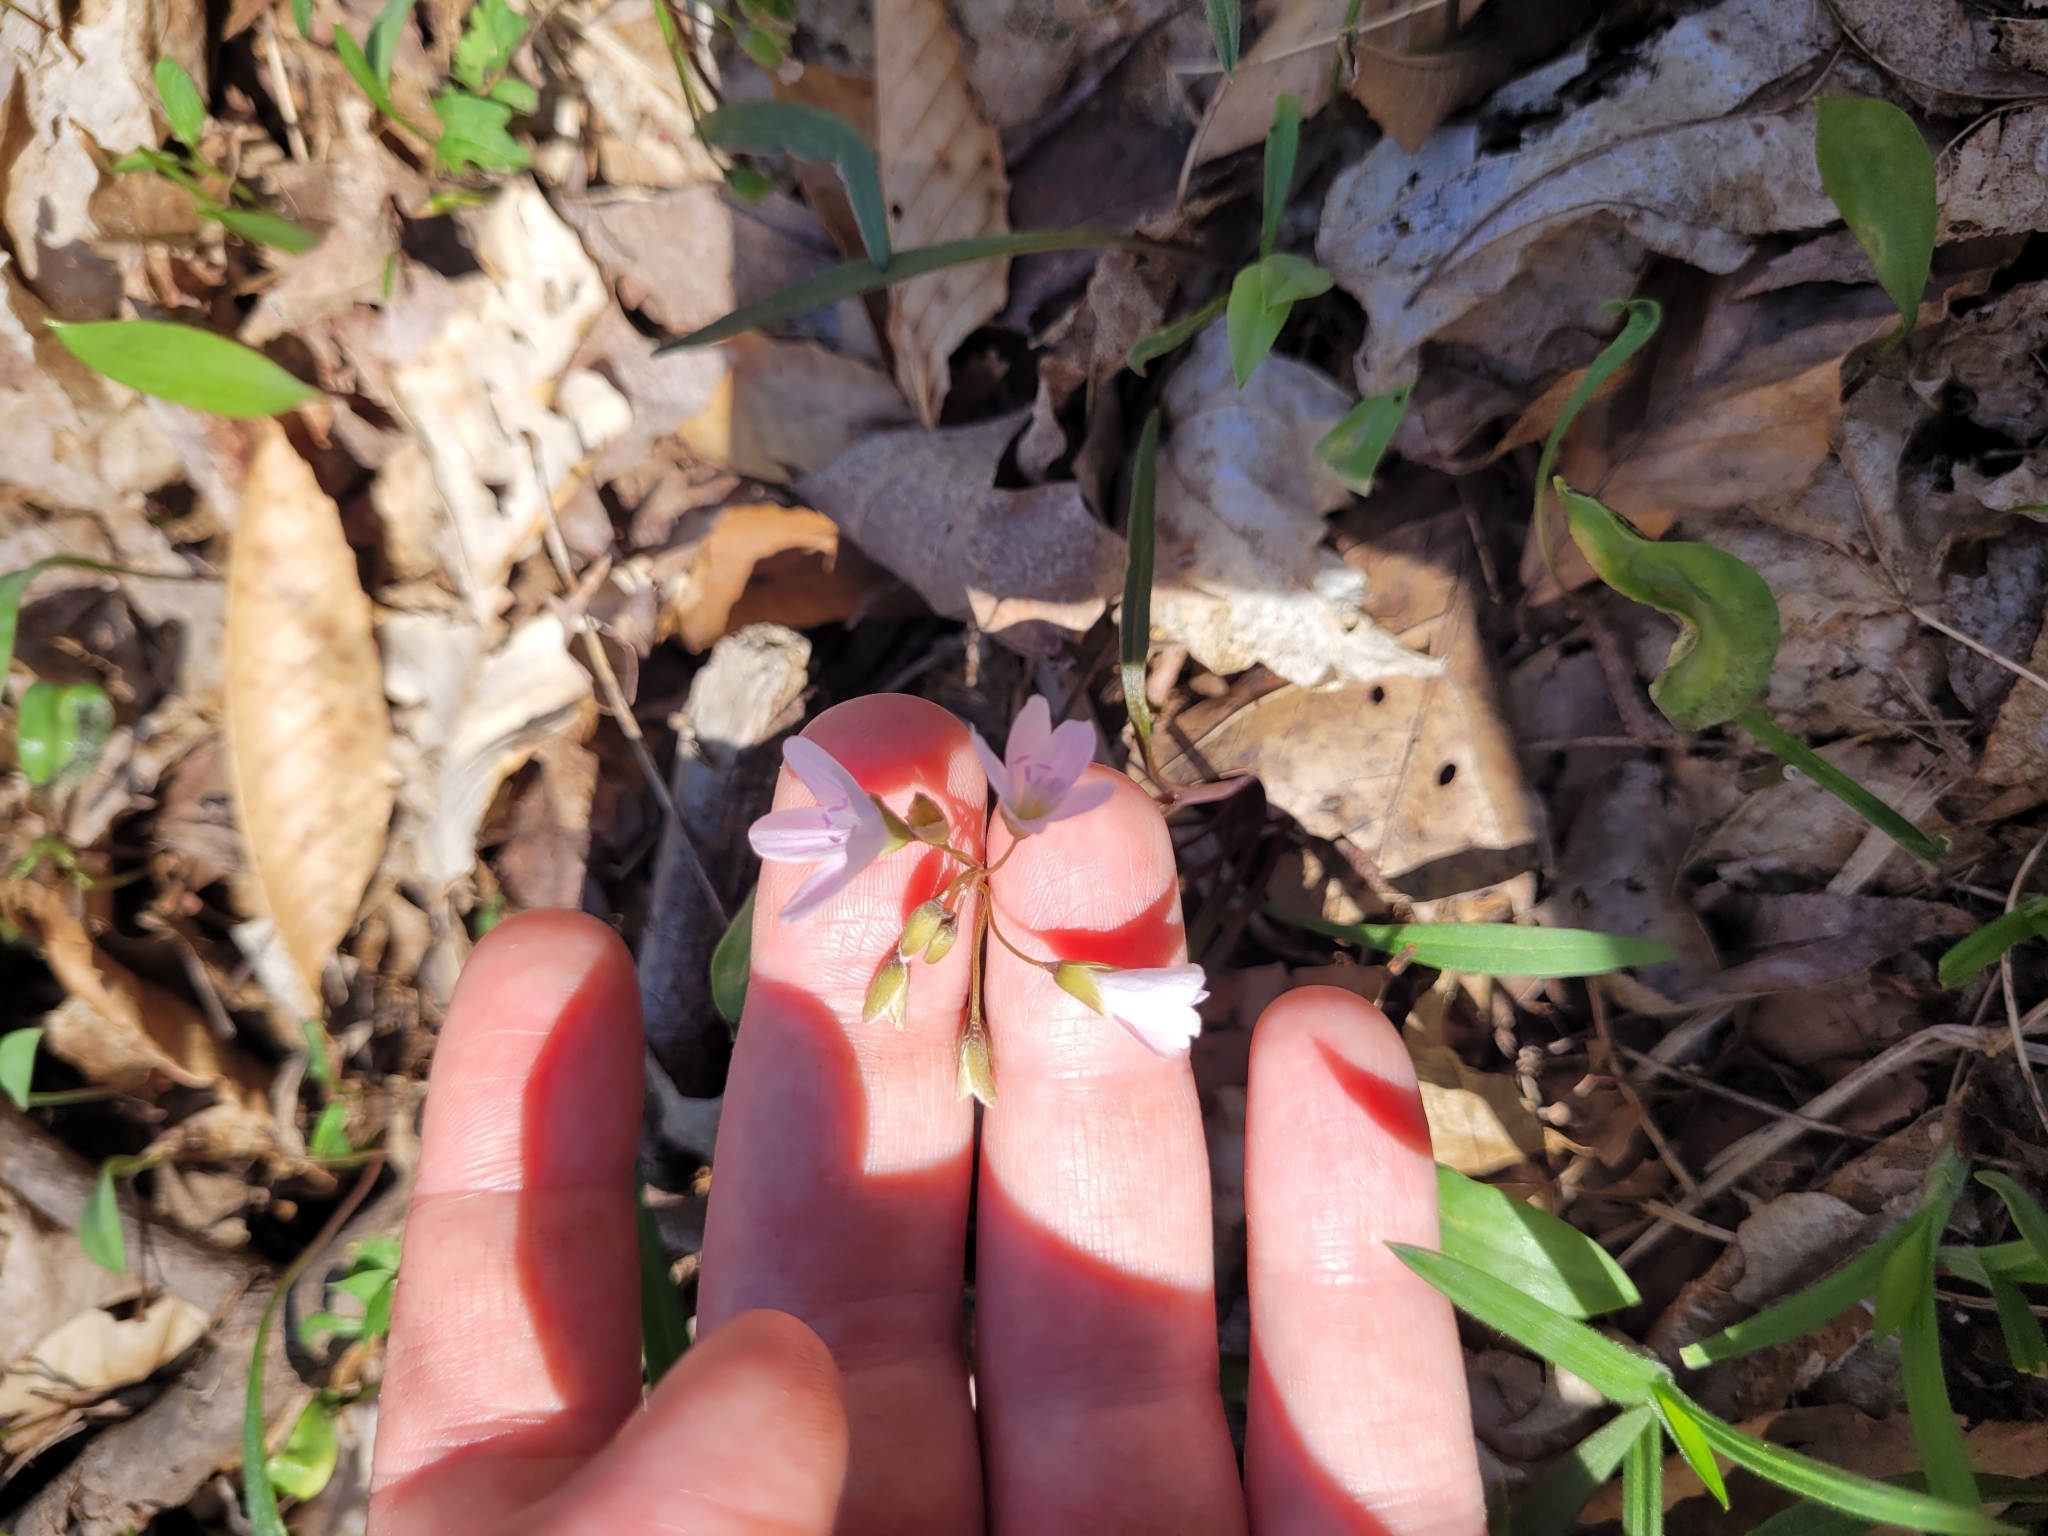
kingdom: Plantae
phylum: Tracheophyta
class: Magnoliopsida
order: Caryophyllales
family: Montiaceae
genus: Claytonia
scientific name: Claytonia virginica
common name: Virginia springbeauty
